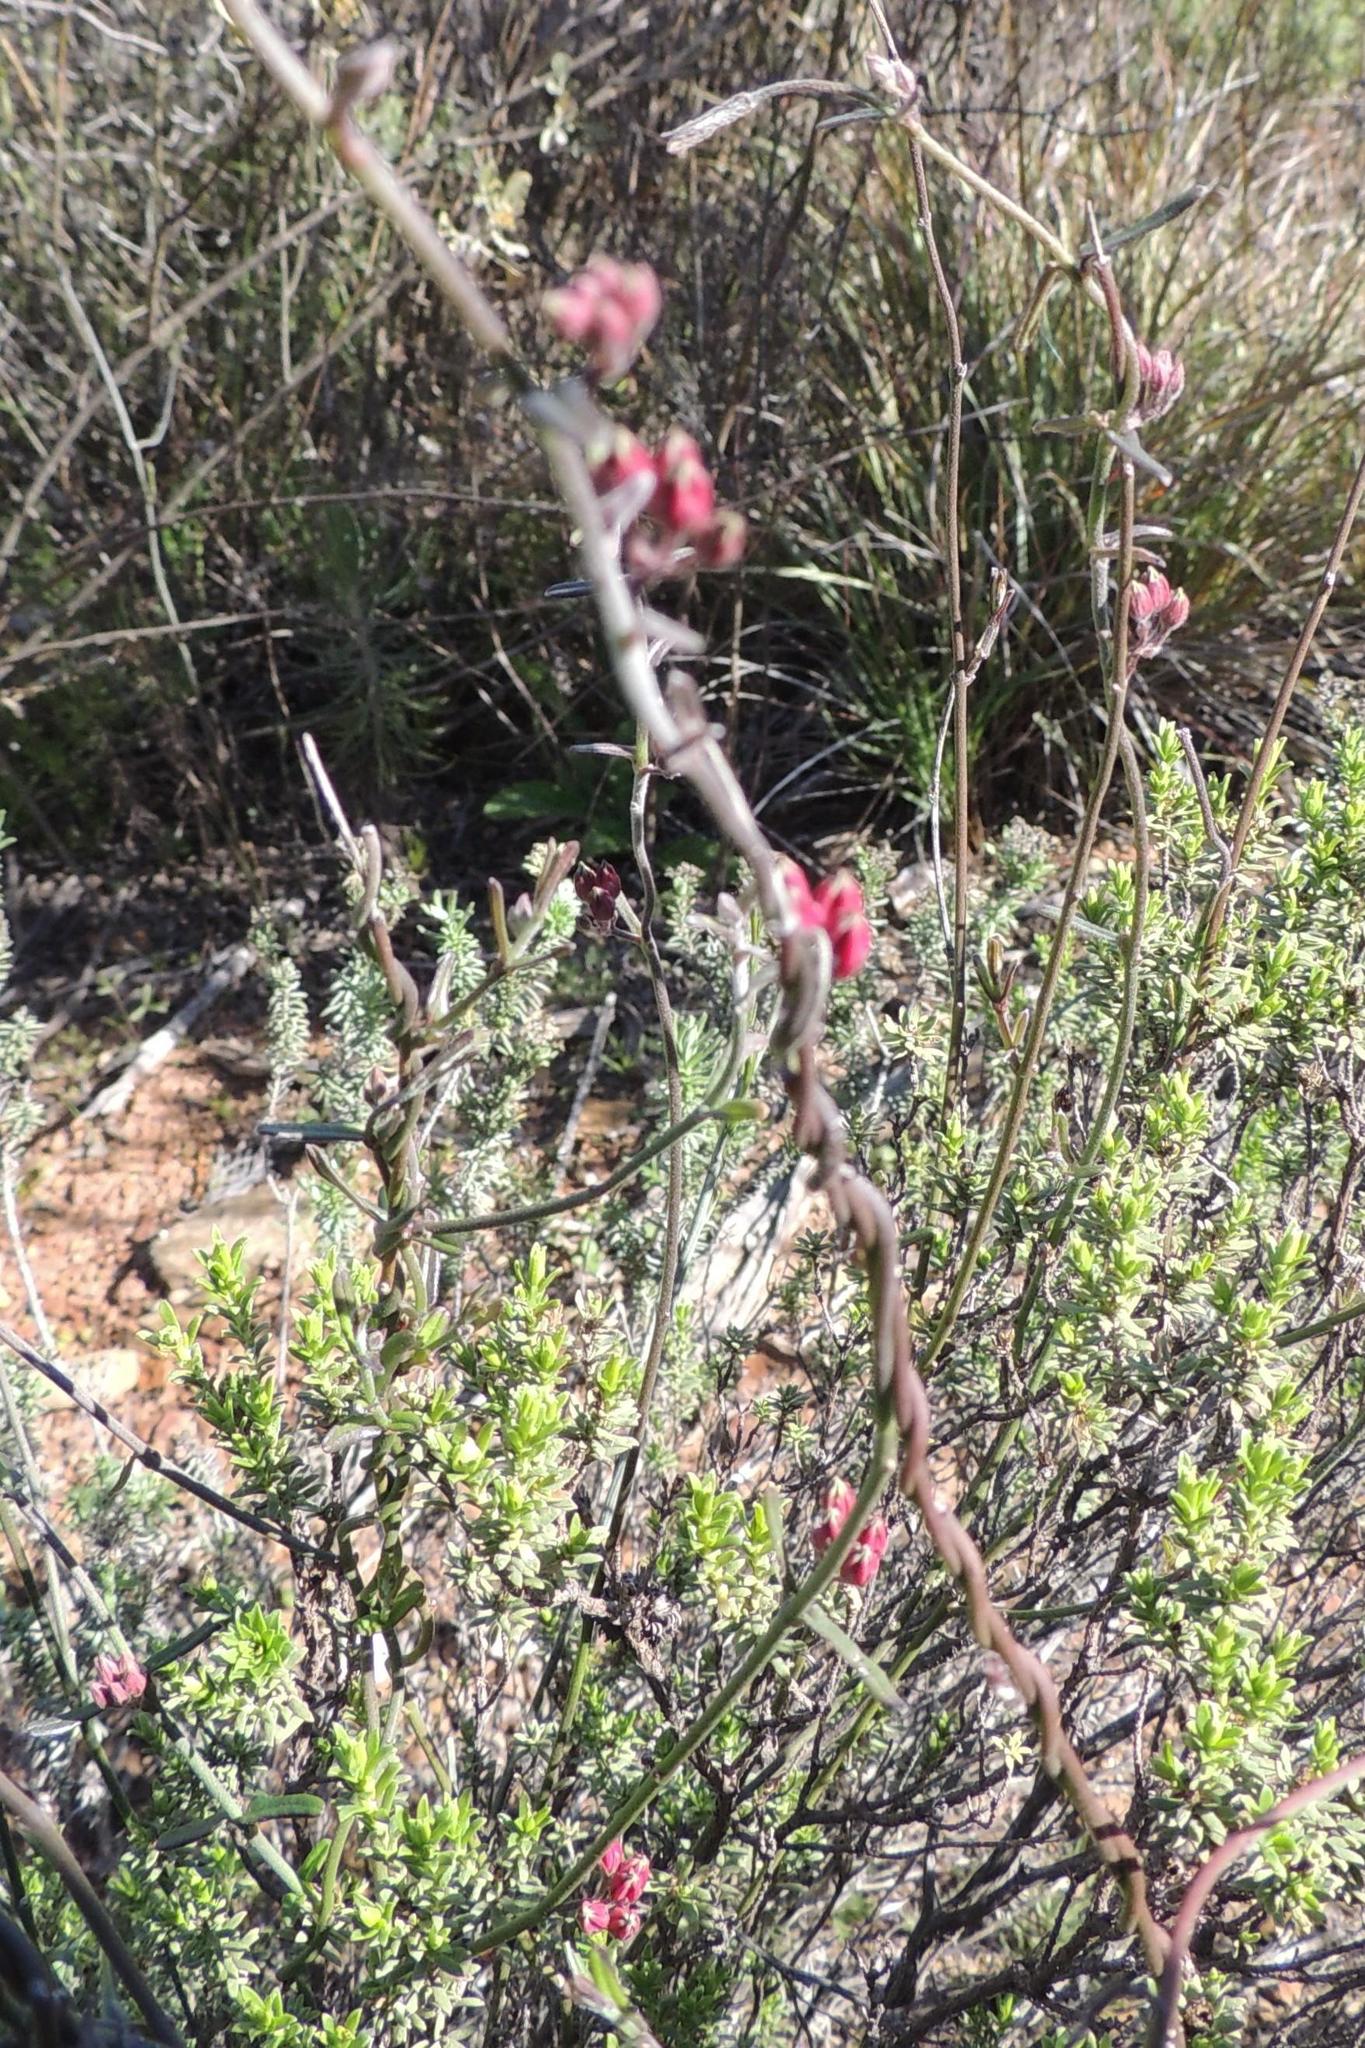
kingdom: Plantae
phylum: Tracheophyta
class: Magnoliopsida
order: Gentianales
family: Apocynaceae
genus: Microloma
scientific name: Microloma sagittatum
